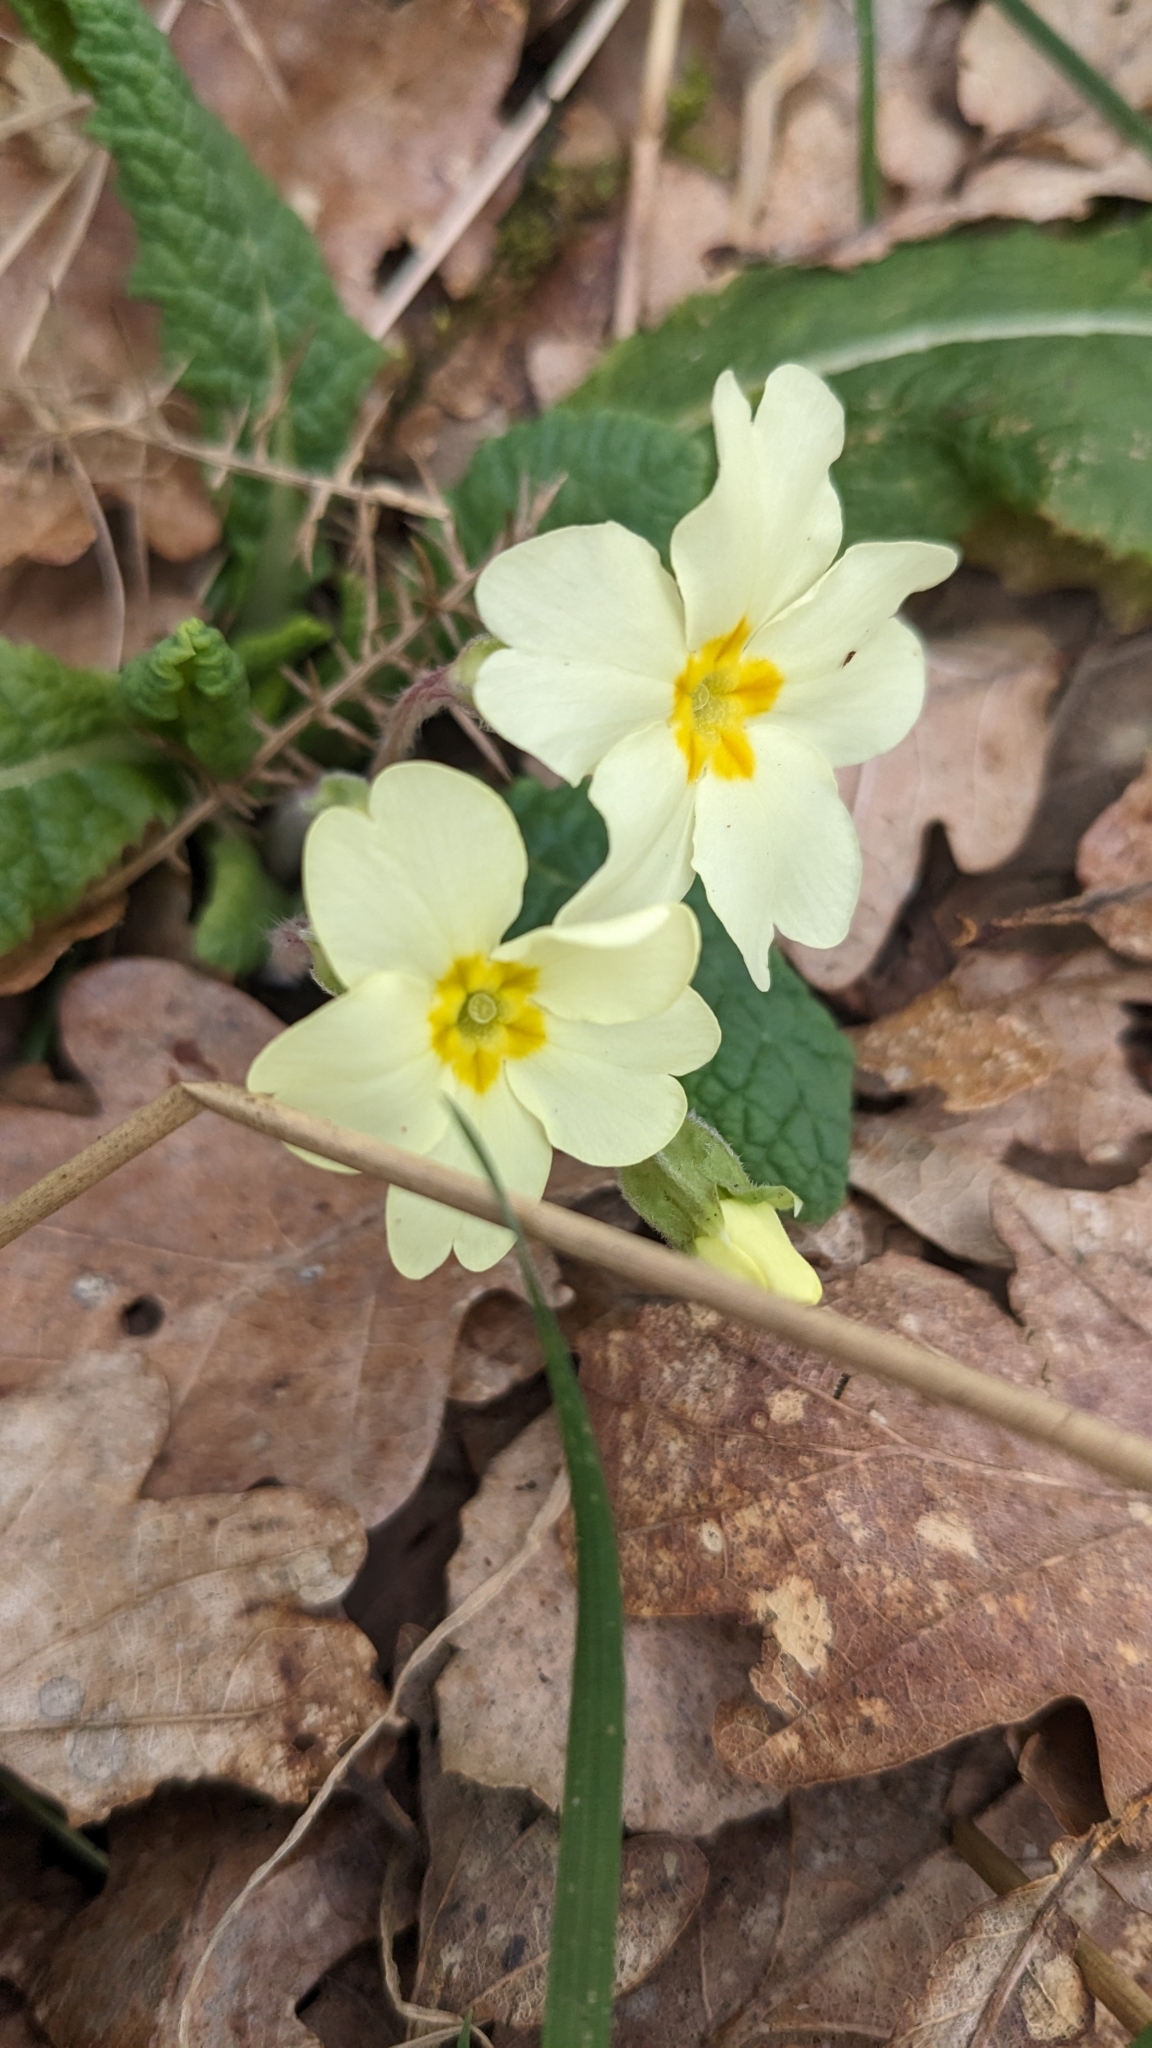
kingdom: Plantae
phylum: Tracheophyta
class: Magnoliopsida
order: Ericales
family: Primulaceae
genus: Primula
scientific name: Primula vulgaris
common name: Primrose
